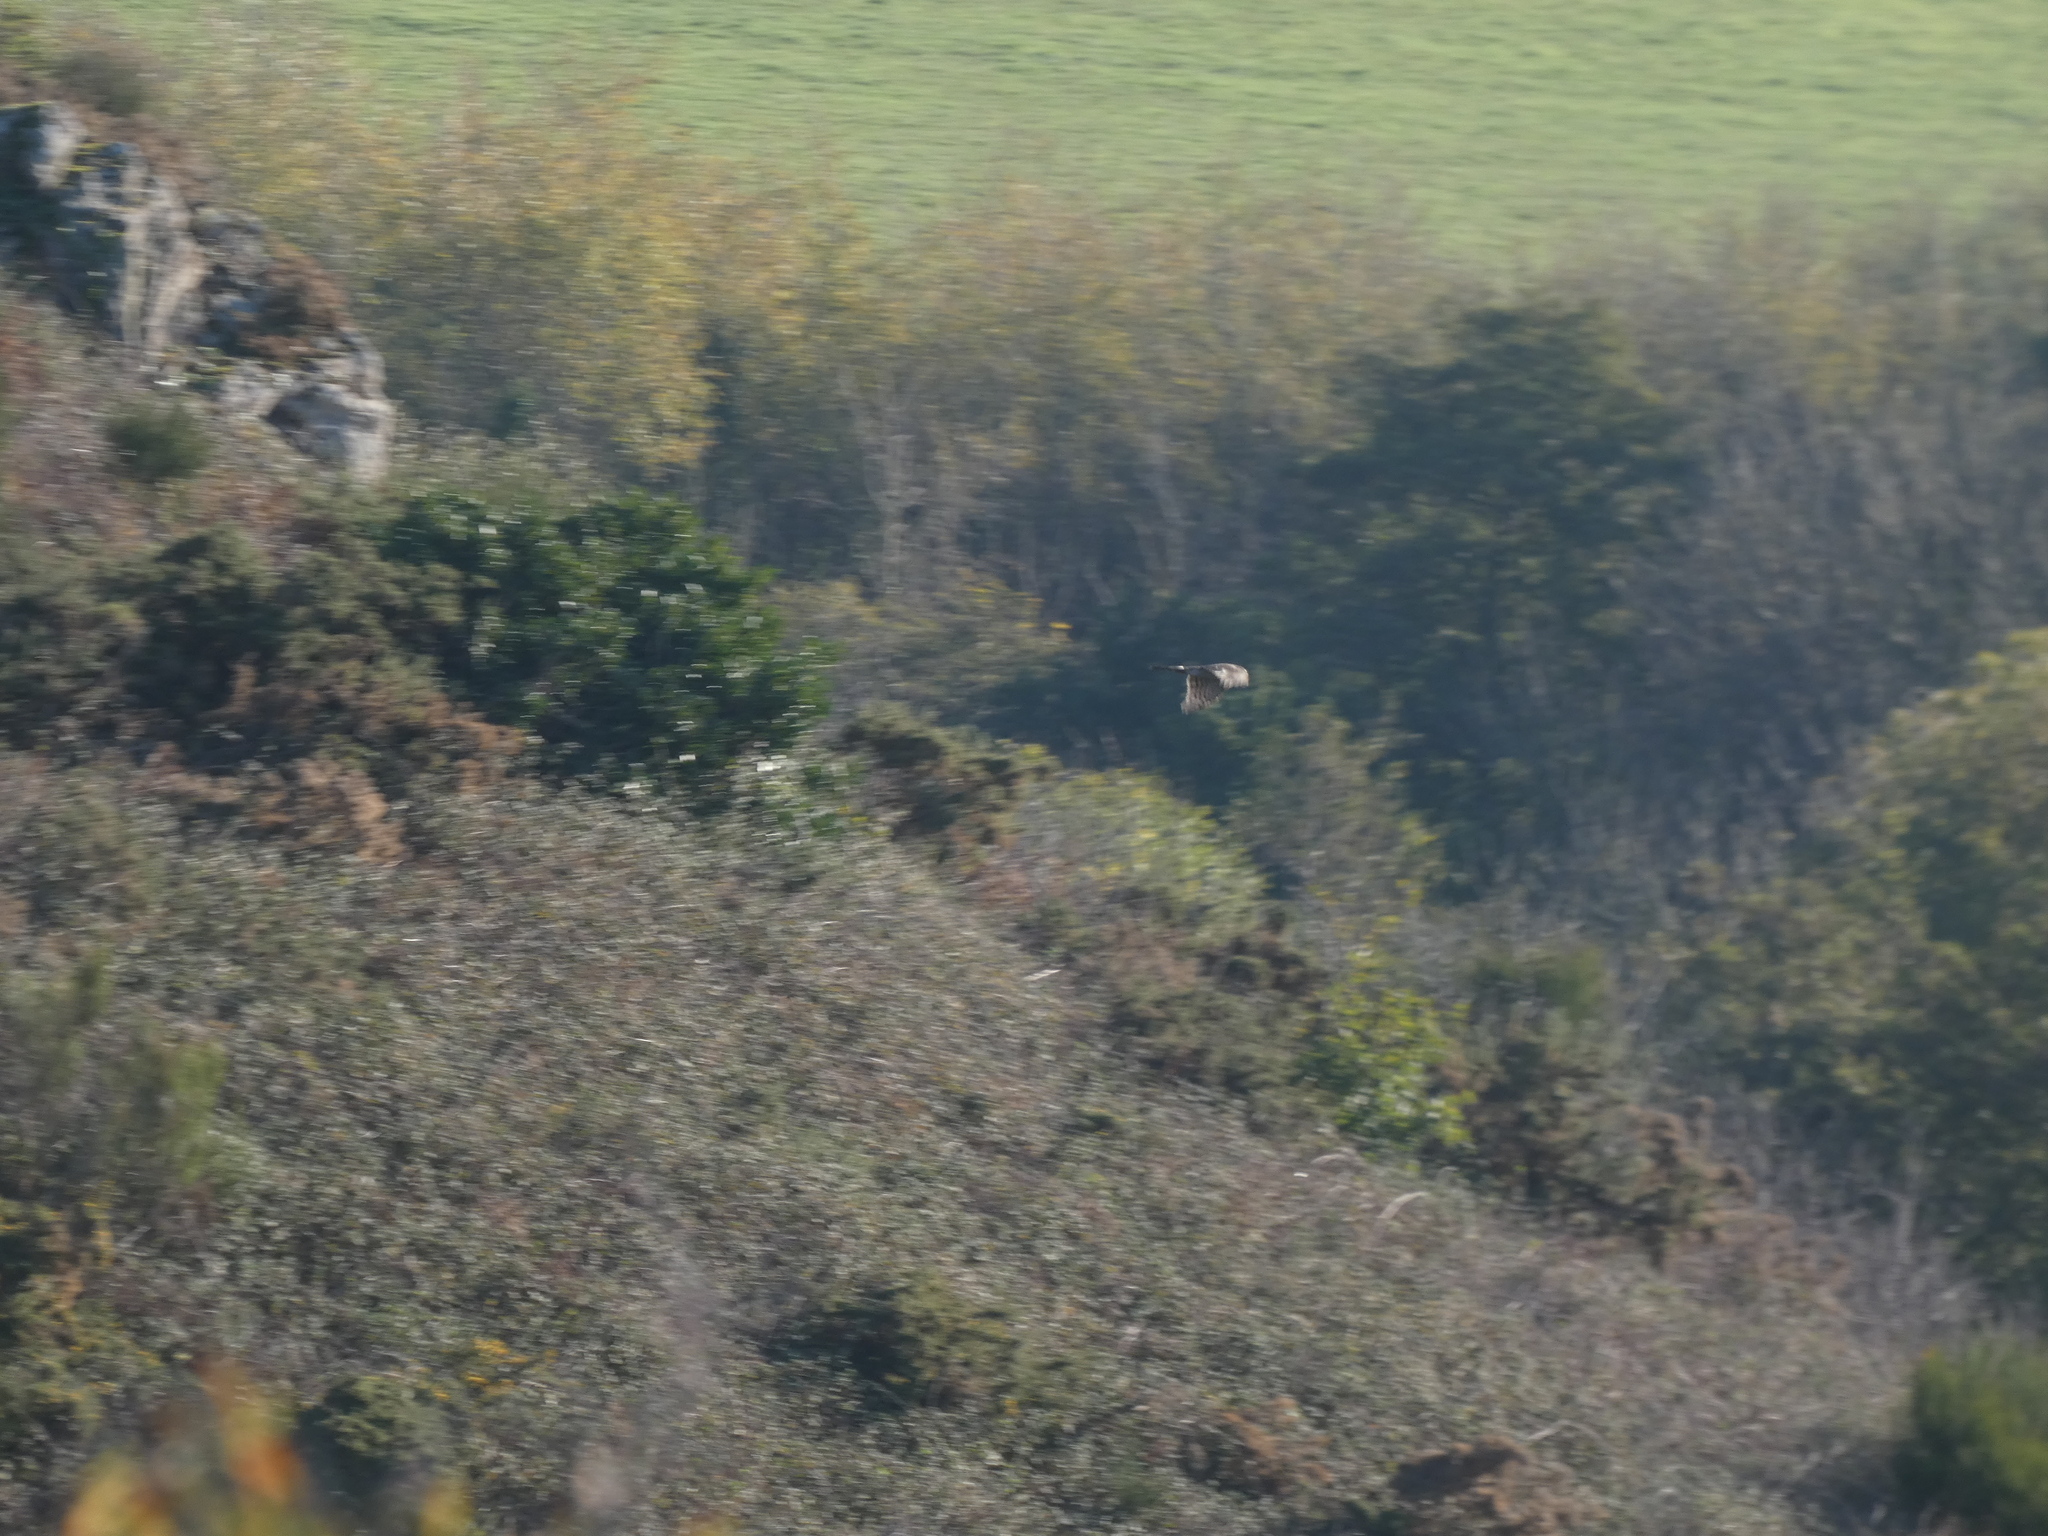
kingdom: Animalia
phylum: Chordata
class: Aves
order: Accipitriformes
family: Accipitridae
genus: Accipiter
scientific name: Accipiter nisus
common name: Eurasian sparrowhawk
